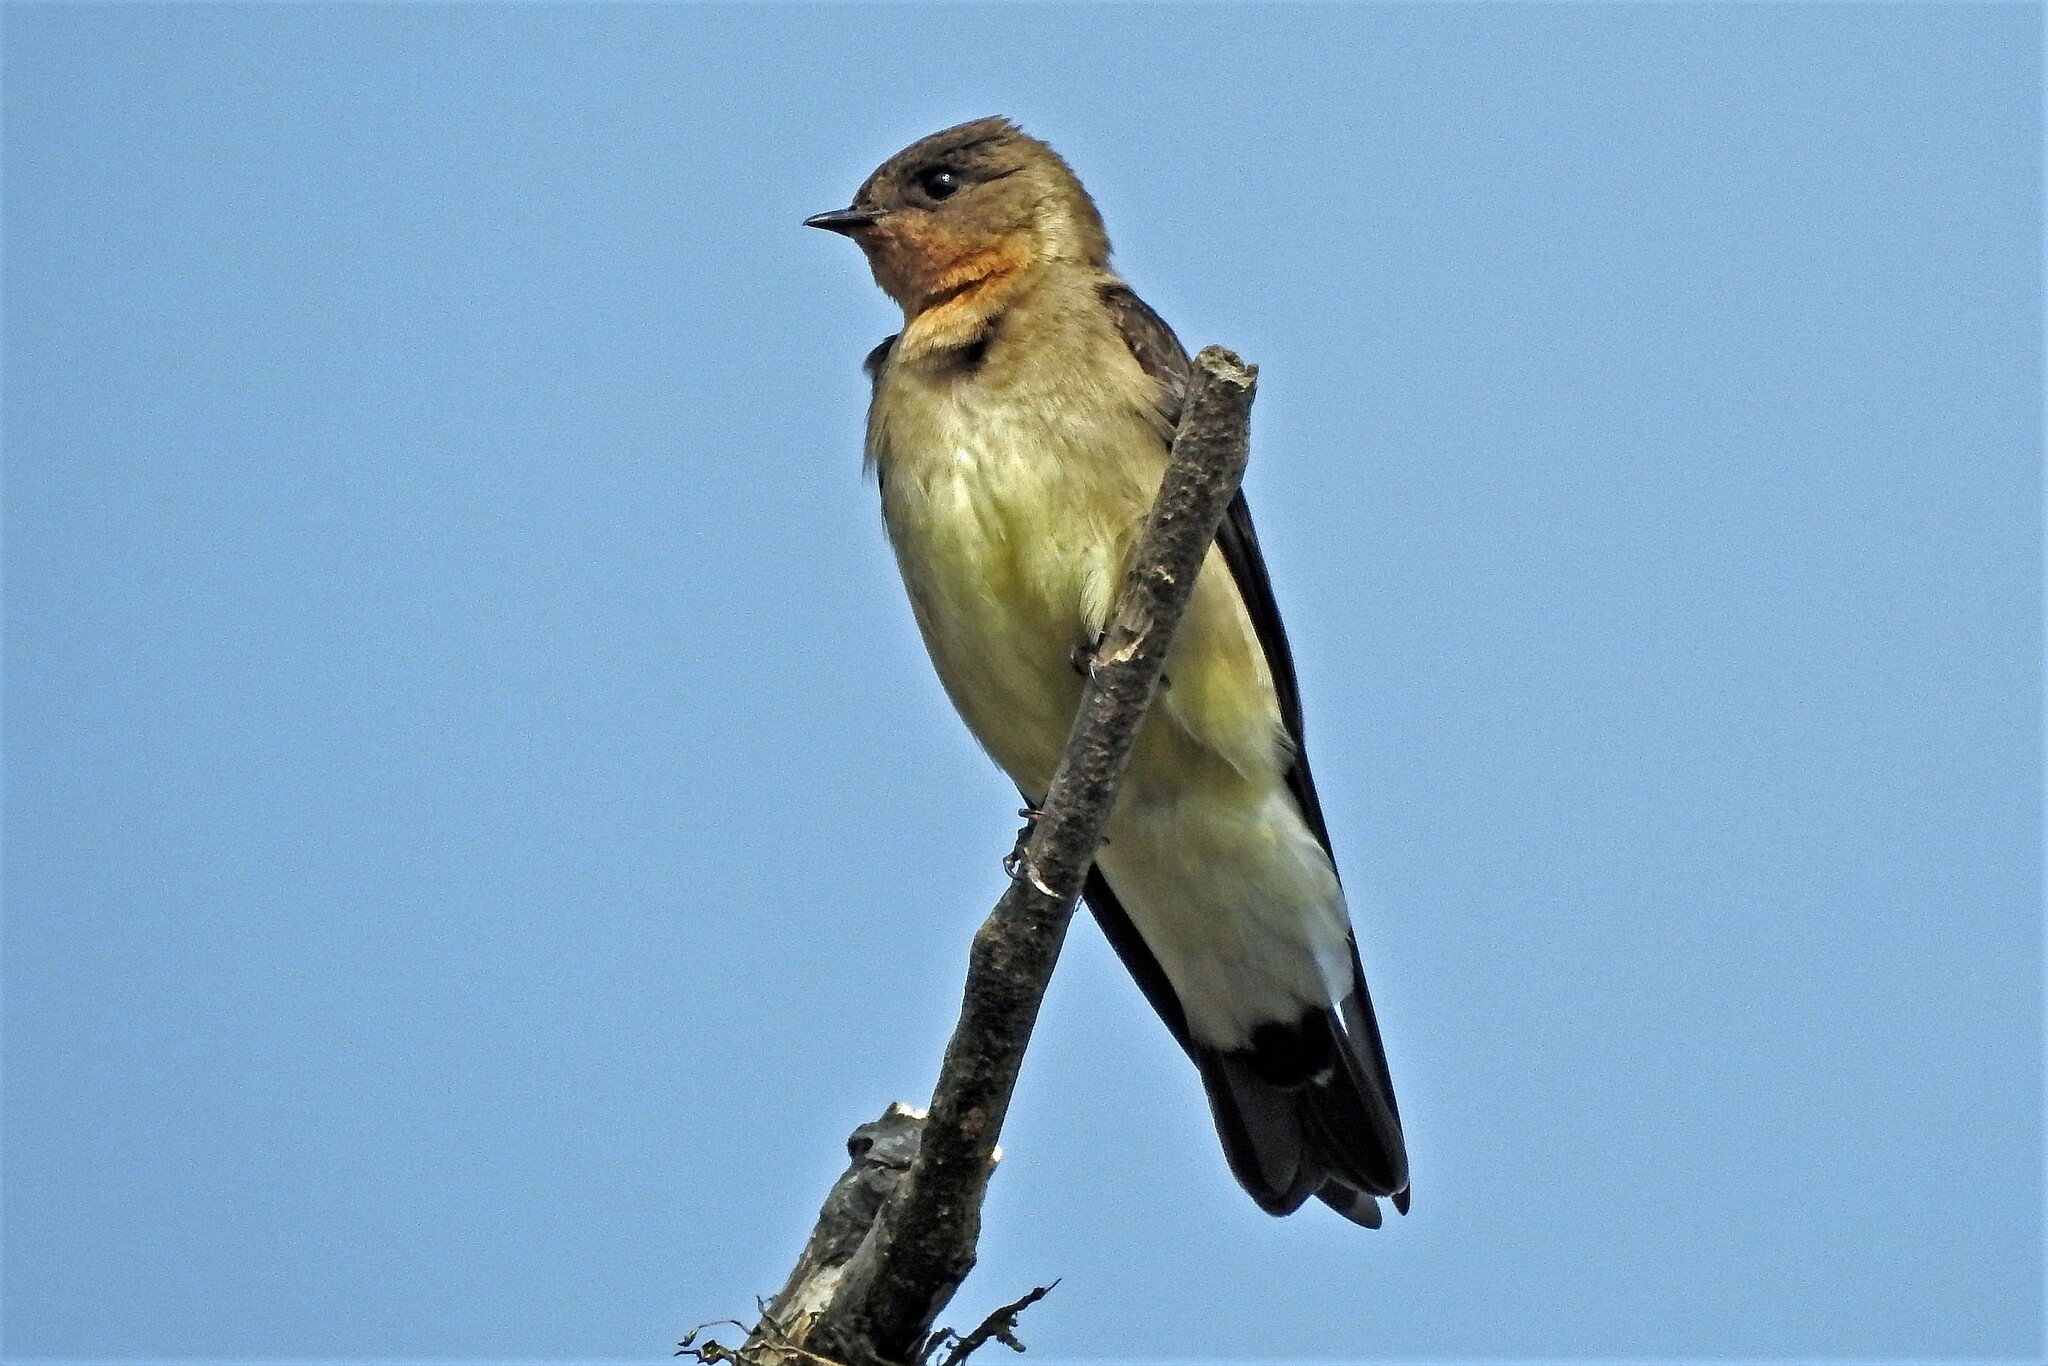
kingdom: Animalia
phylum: Chordata
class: Aves
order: Passeriformes
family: Hirundinidae
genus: Stelgidopteryx
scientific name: Stelgidopteryx ruficollis
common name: Southern rough-winged swallow
